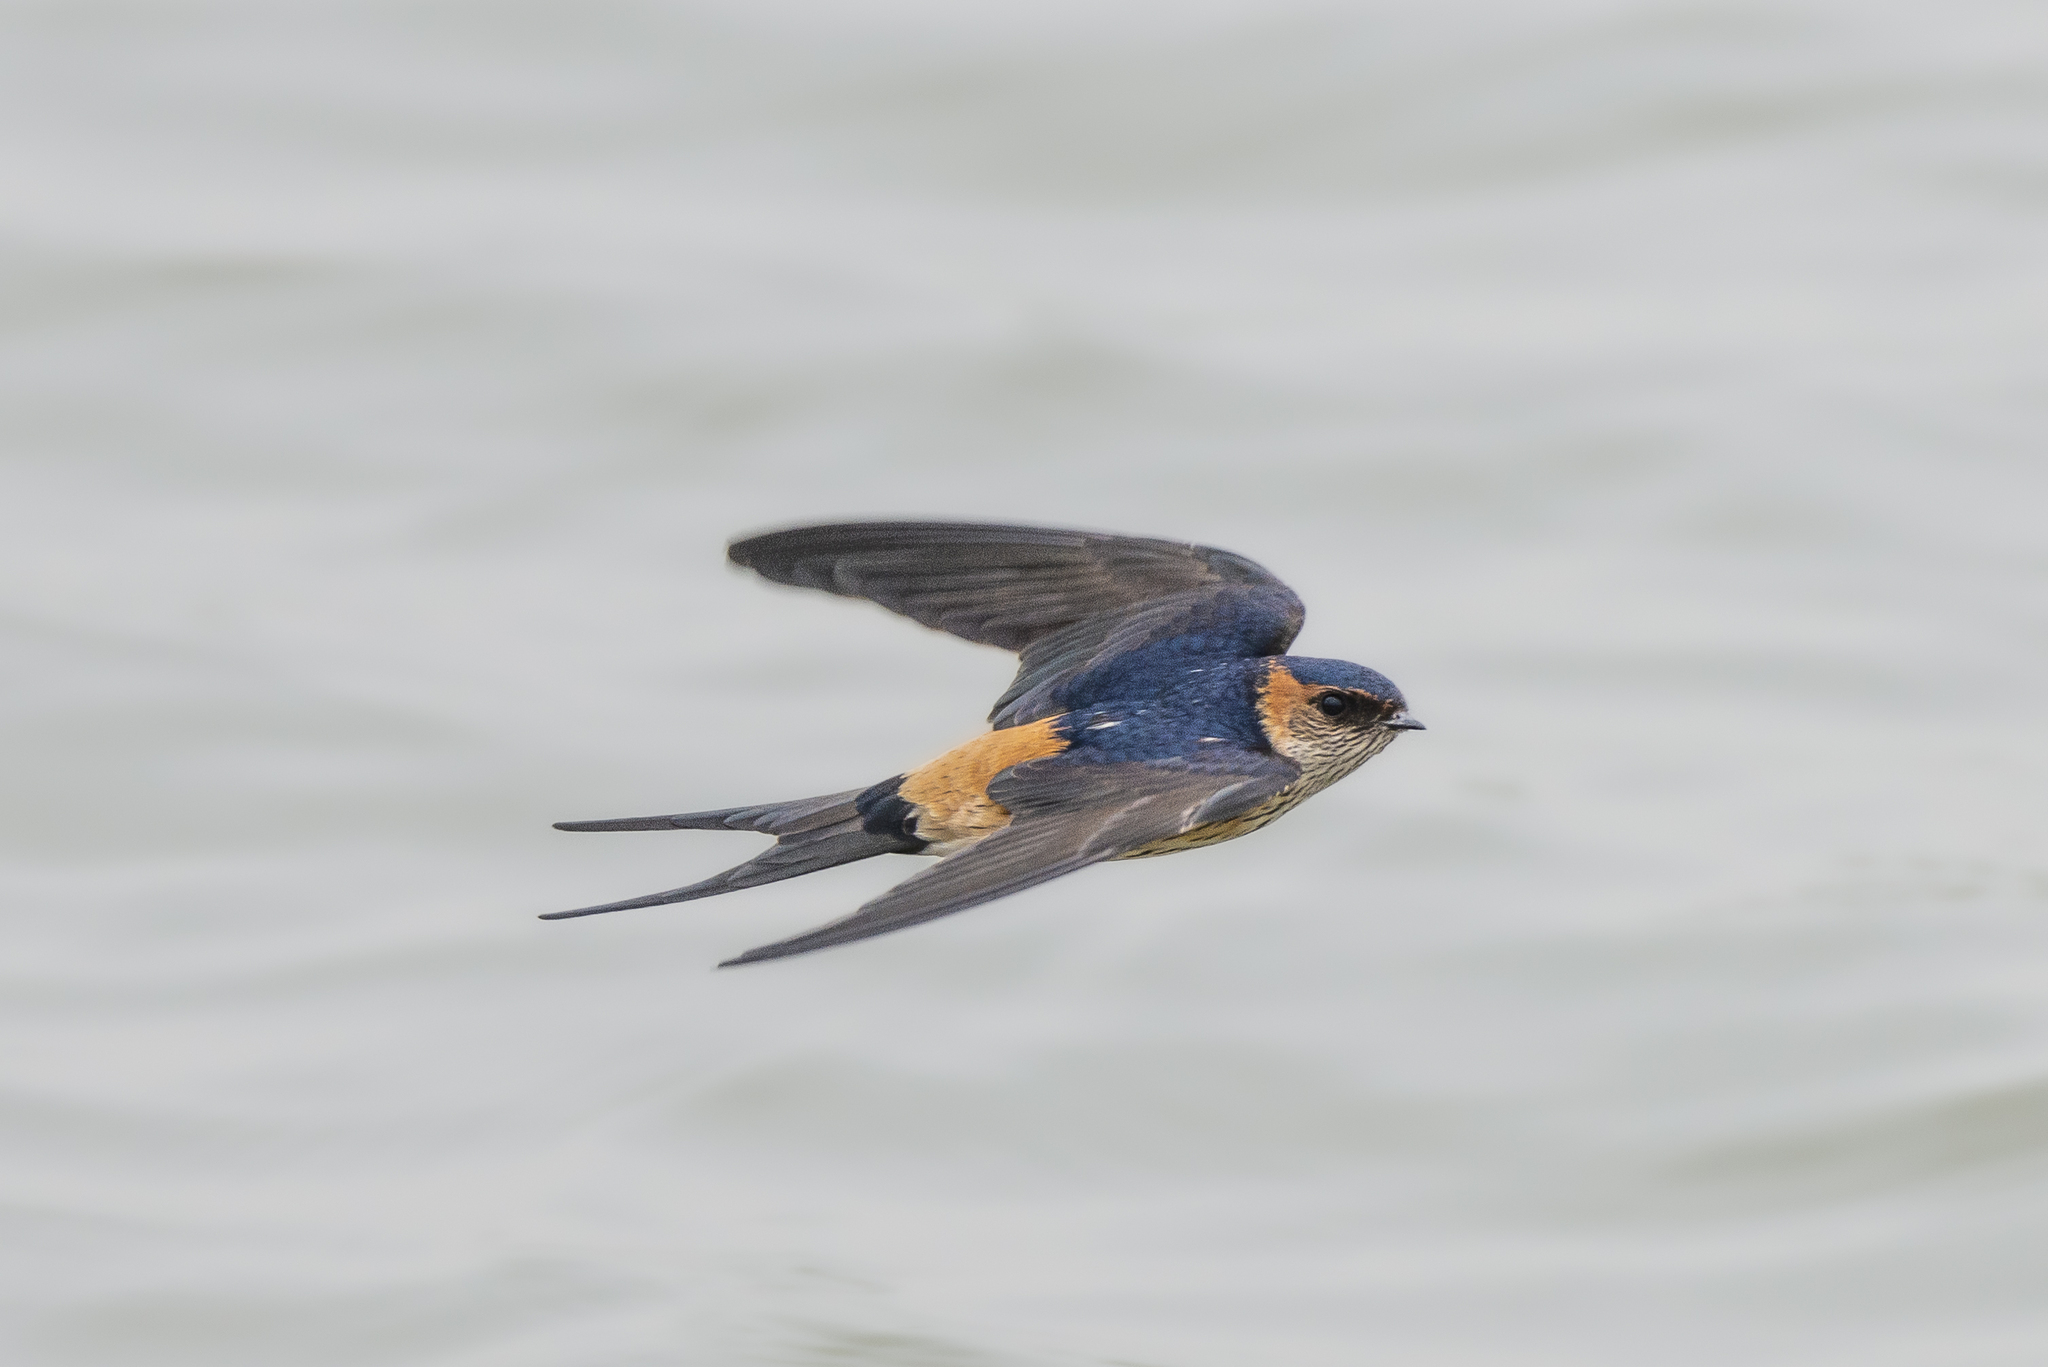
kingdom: Animalia
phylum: Chordata
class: Aves
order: Passeriformes
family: Hirundinidae
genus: Cecropis
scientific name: Cecropis daurica
